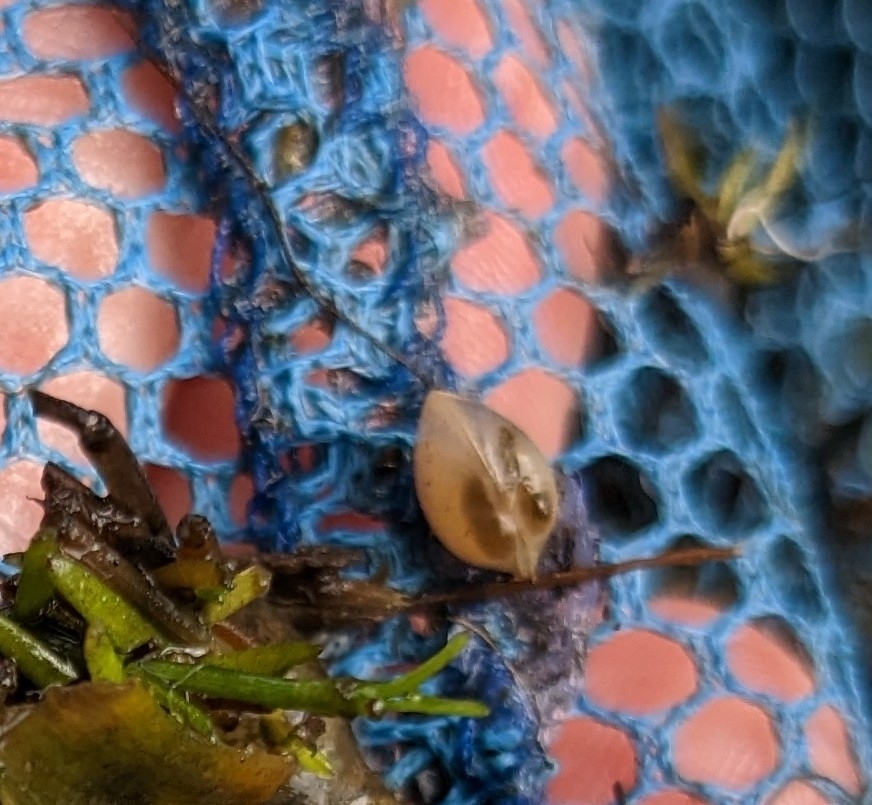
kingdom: Animalia
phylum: Mollusca
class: Bivalvia
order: Sphaeriida
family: Sphaeriidae
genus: Musculium
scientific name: Musculium lacustre
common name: Lake fingernailclam
